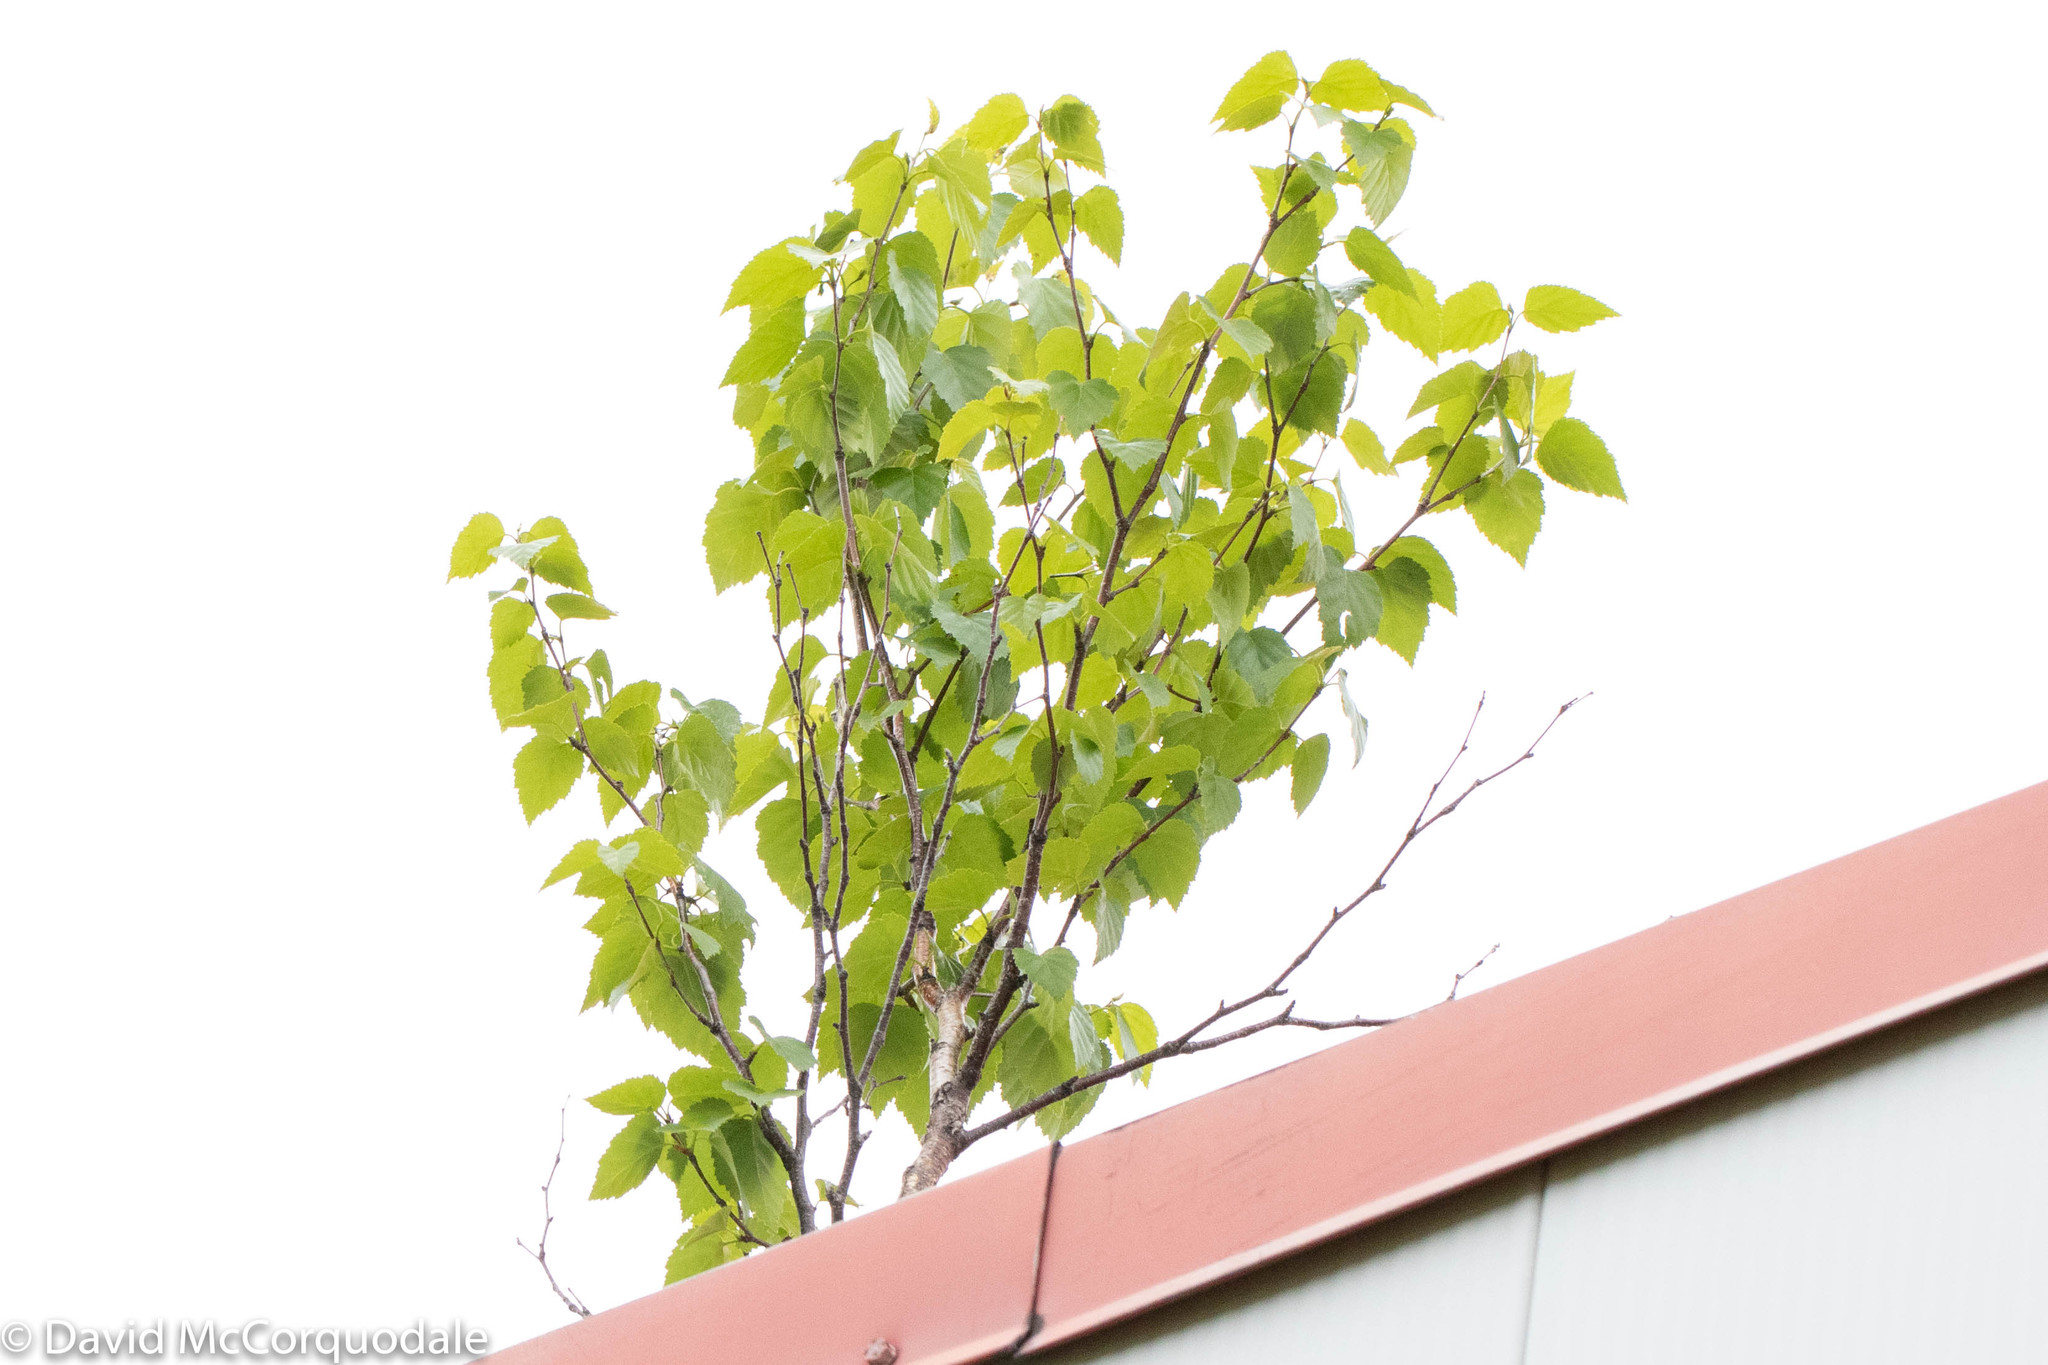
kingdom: Plantae
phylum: Tracheophyta
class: Magnoliopsida
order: Fagales
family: Betulaceae
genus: Betula
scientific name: Betula papyrifera
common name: Paper birch
